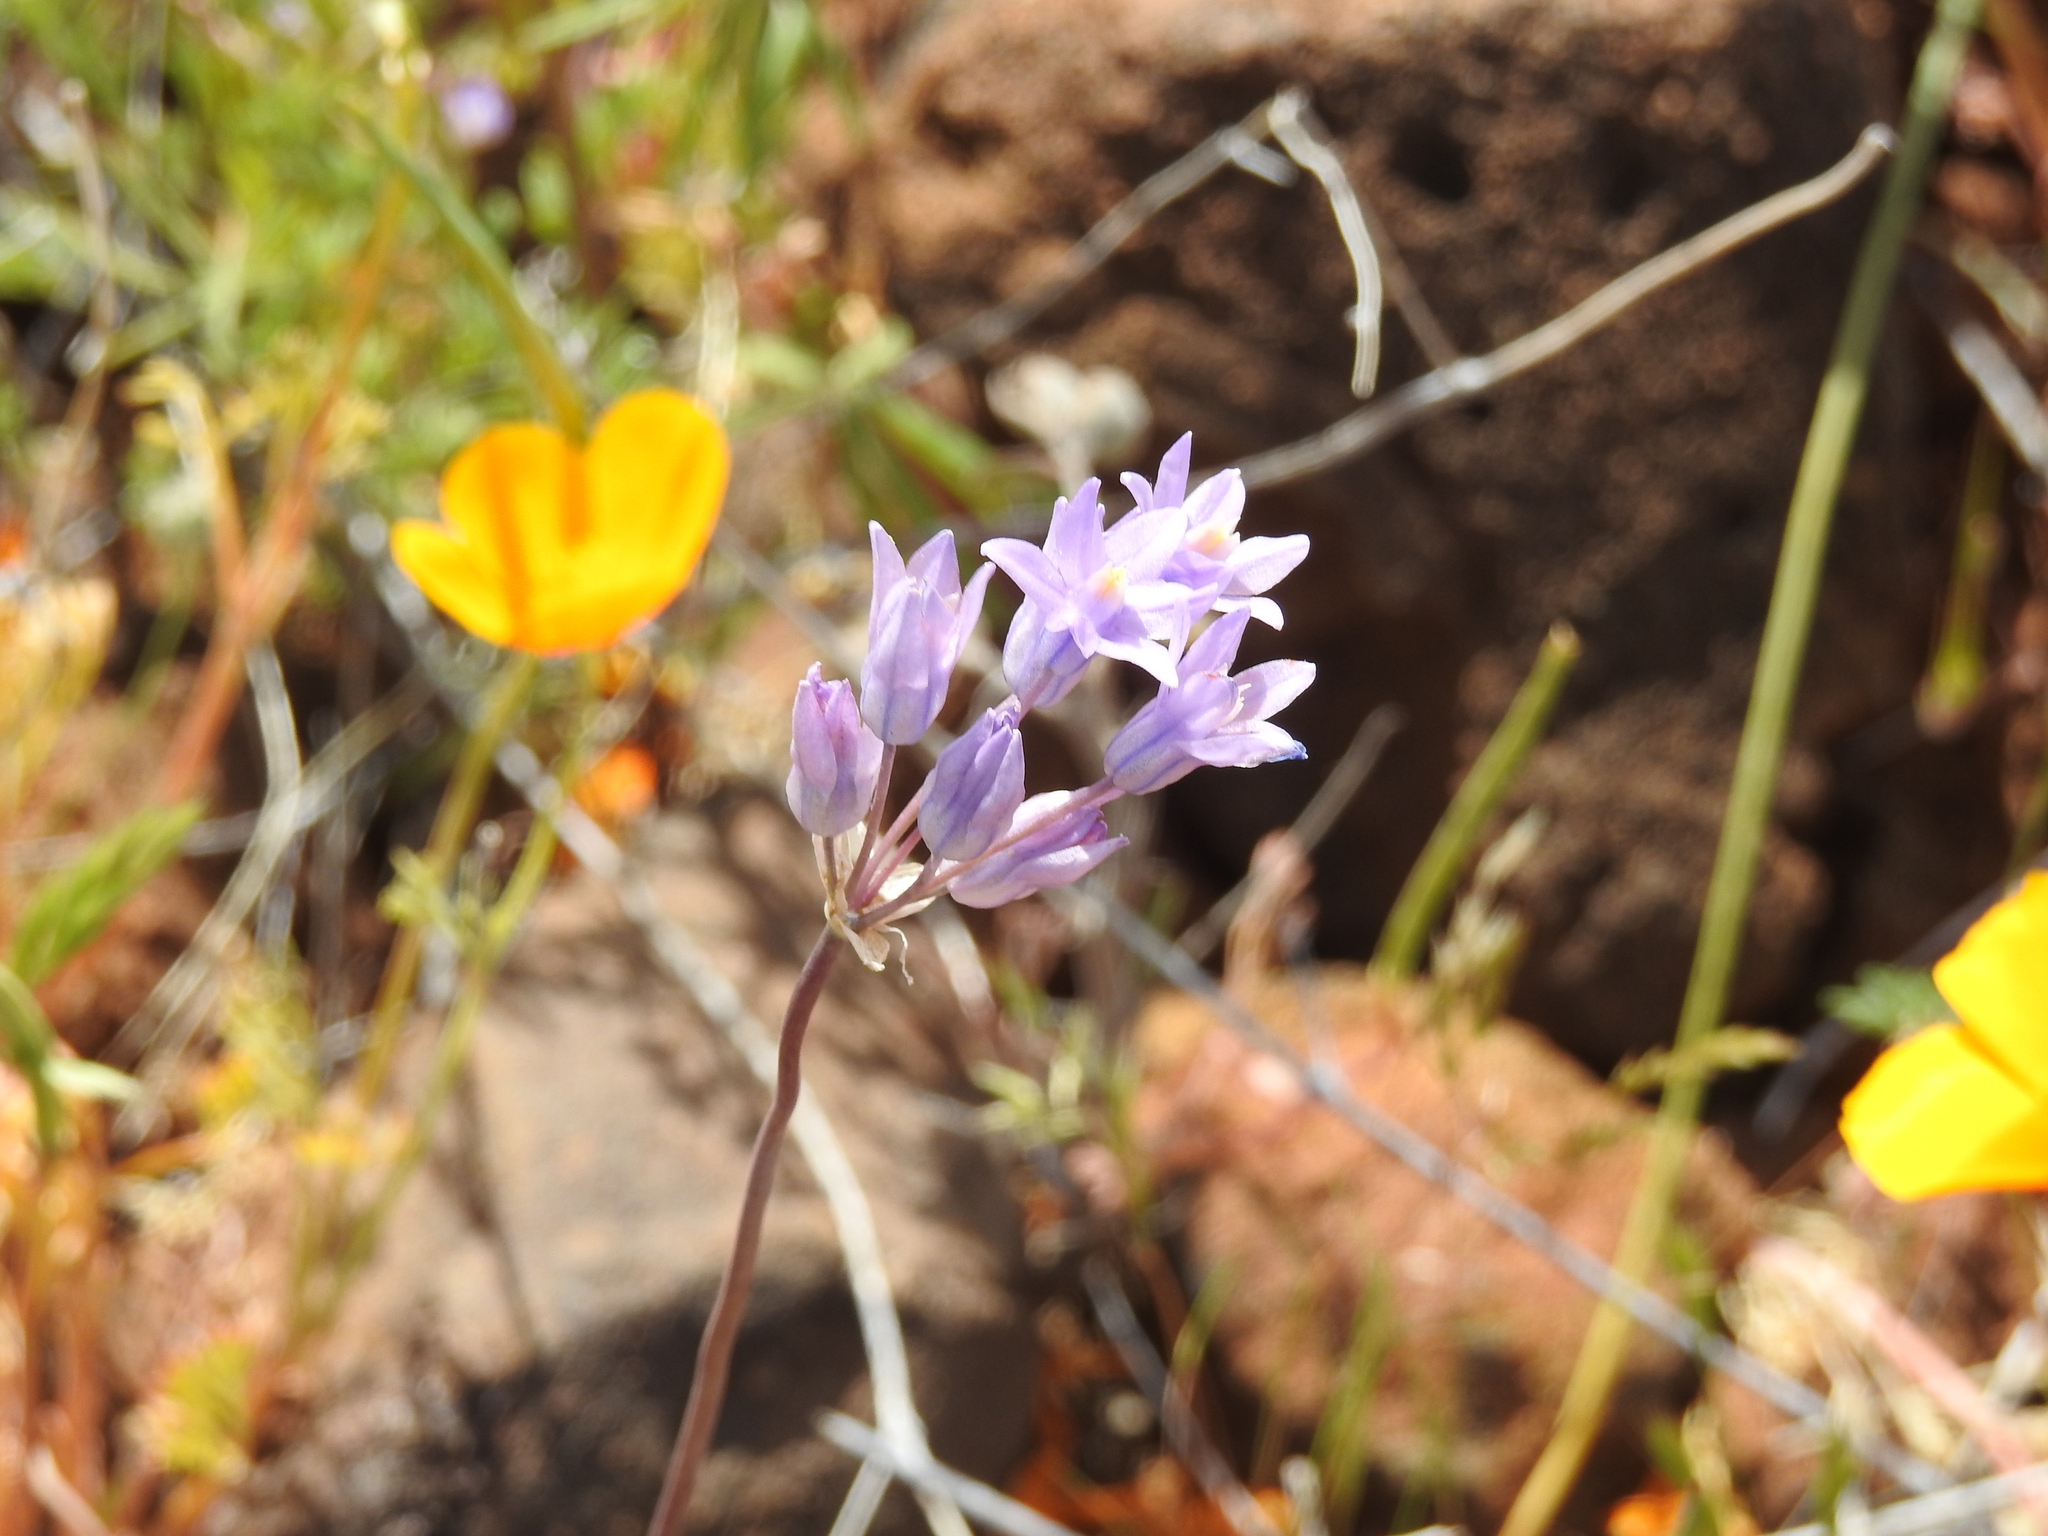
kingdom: Plantae
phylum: Tracheophyta
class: Liliopsida
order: Asparagales
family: Asparagaceae
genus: Dipterostemon
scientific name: Dipterostemon capitatus
